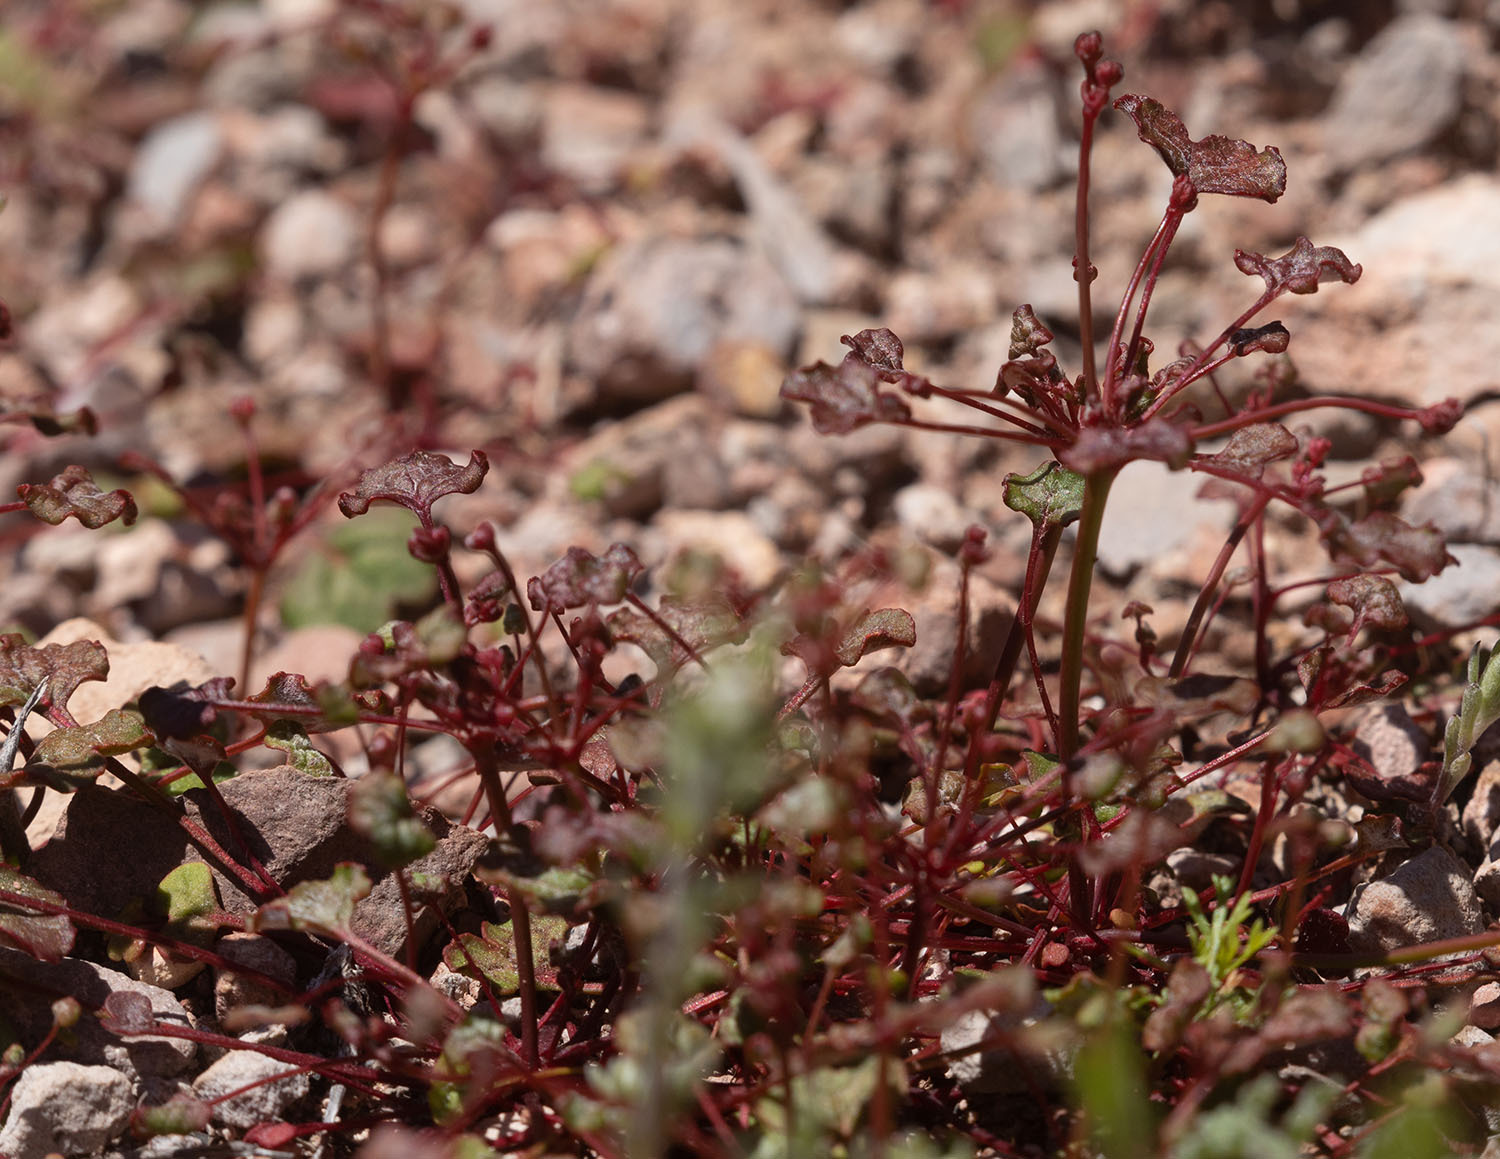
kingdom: Plantae
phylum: Tracheophyta
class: Magnoliopsida
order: Caryophyllales
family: Polygonaceae
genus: Eriogonum
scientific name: Eriogonum nortonii
